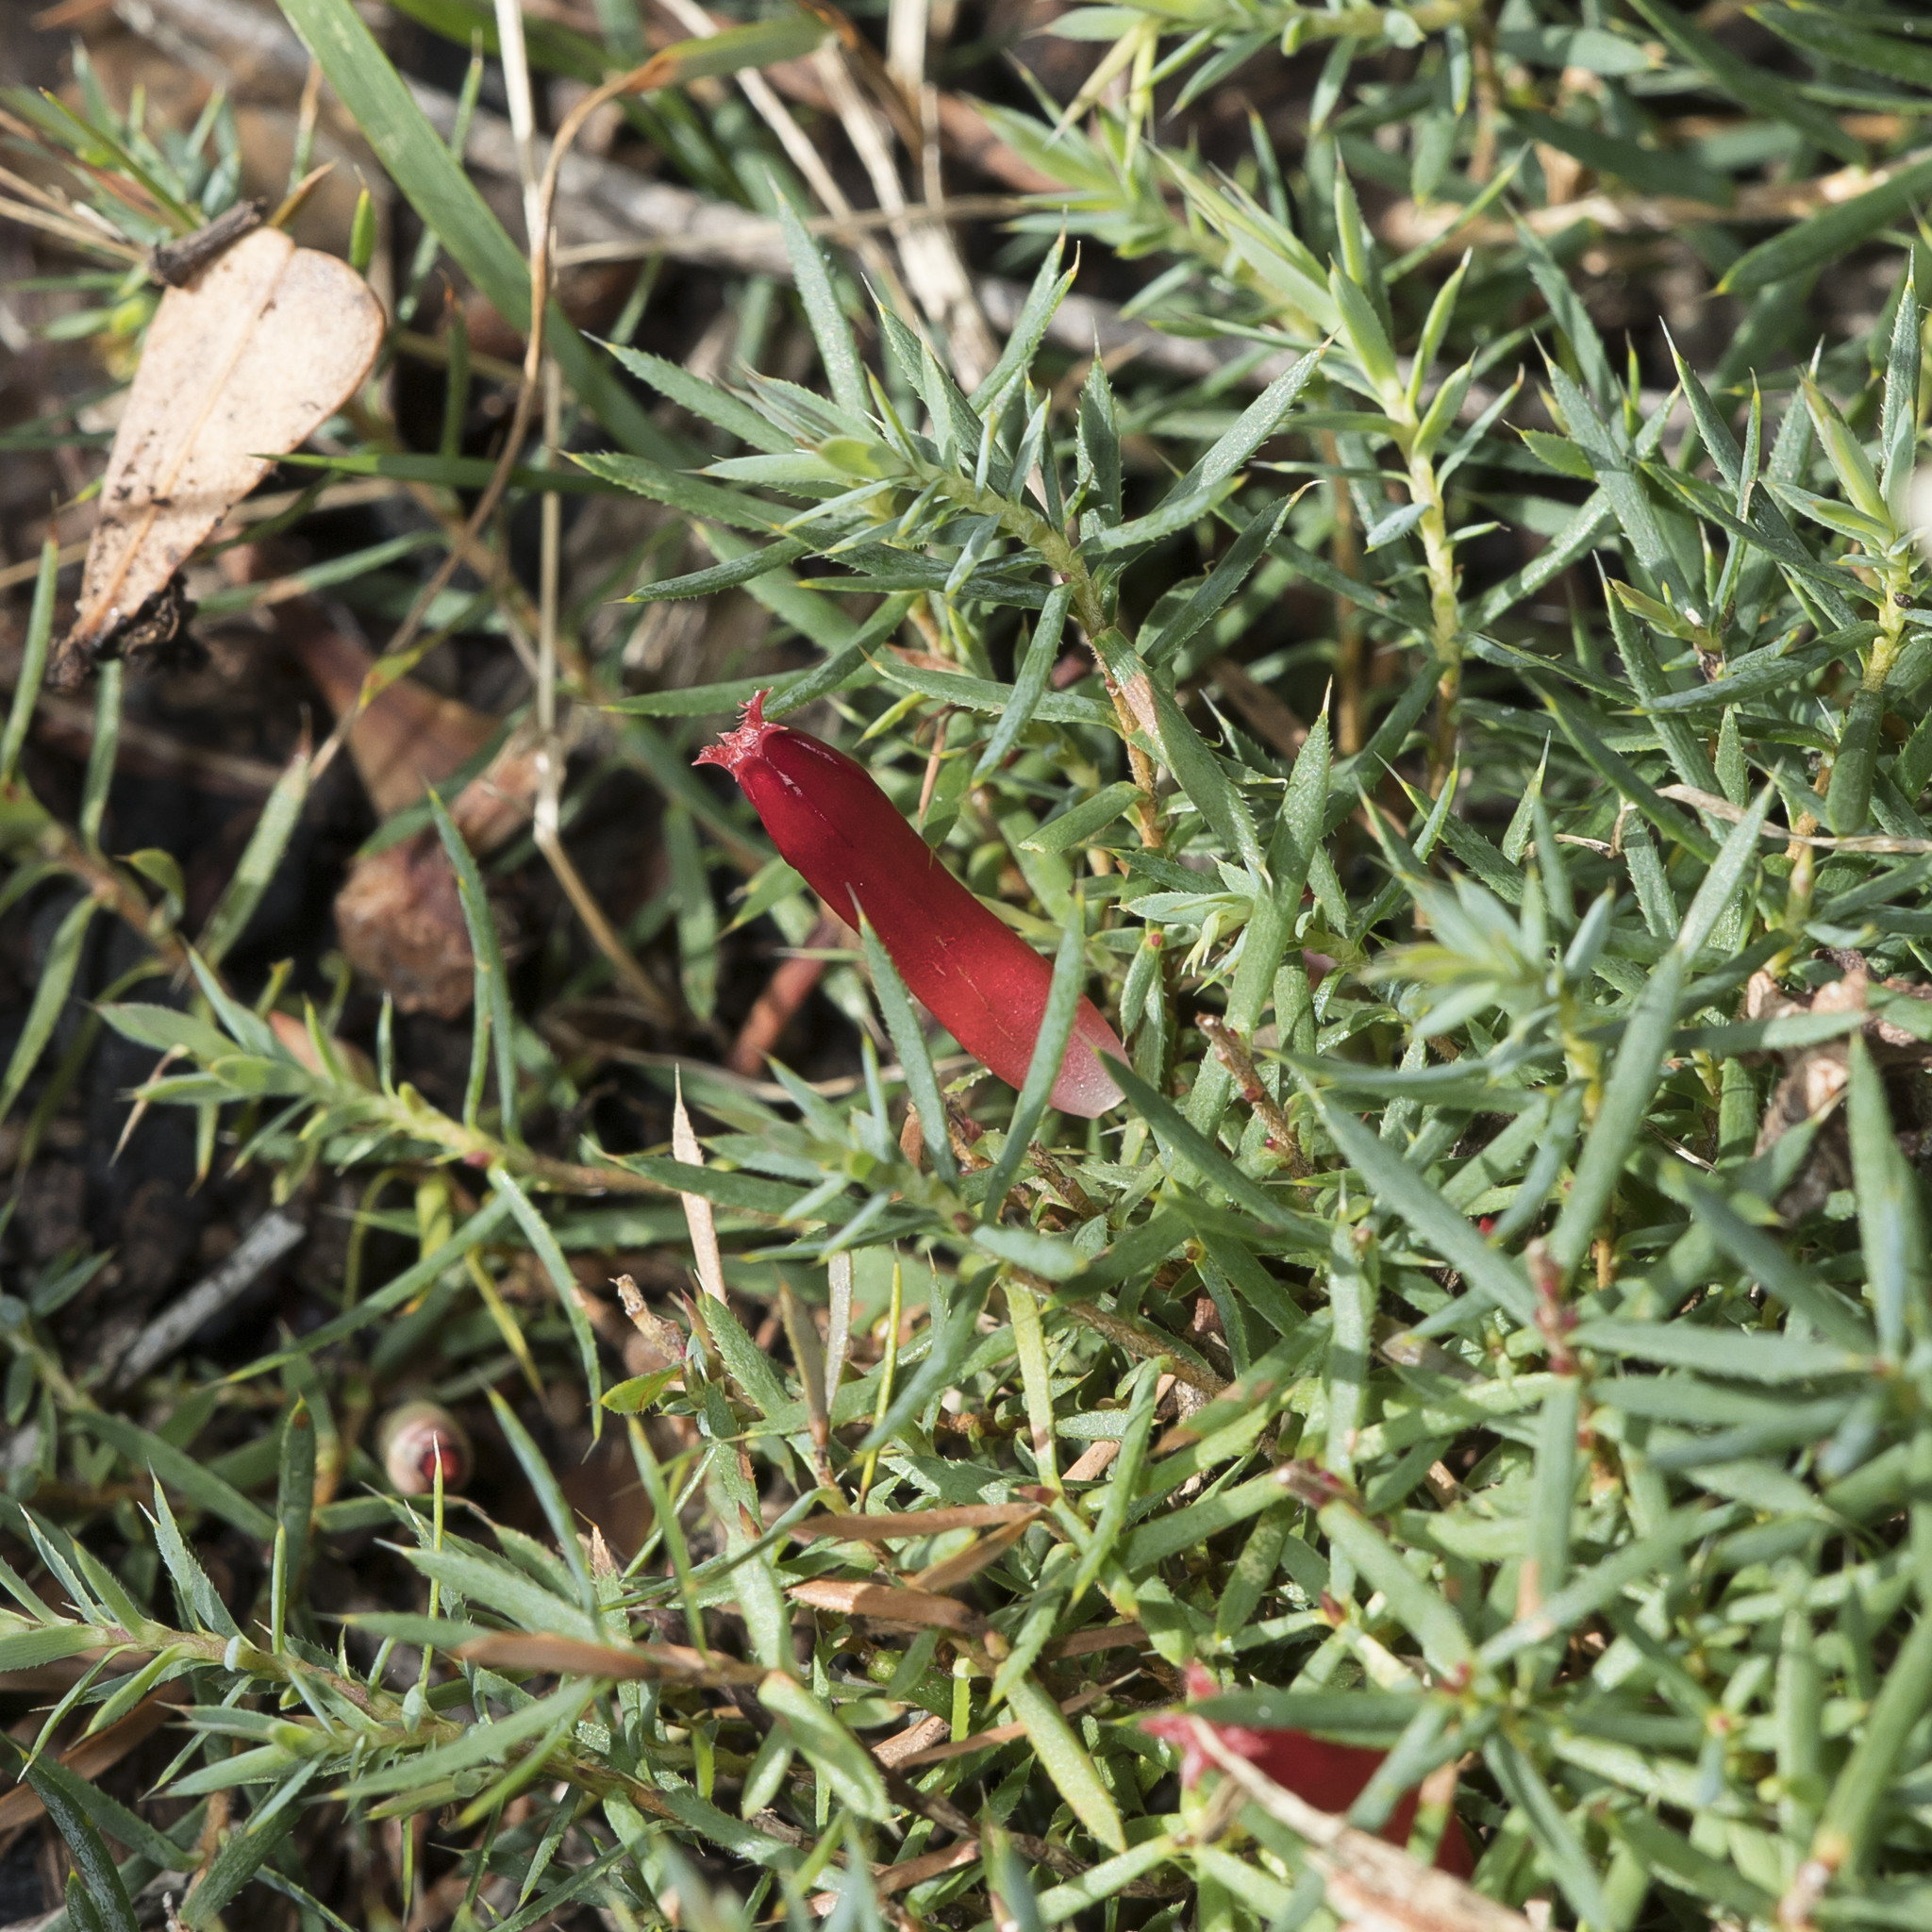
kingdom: Plantae
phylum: Tracheophyta
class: Magnoliopsida
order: Ericales
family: Ericaceae
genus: Styphelia
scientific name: Styphelia humifusa
